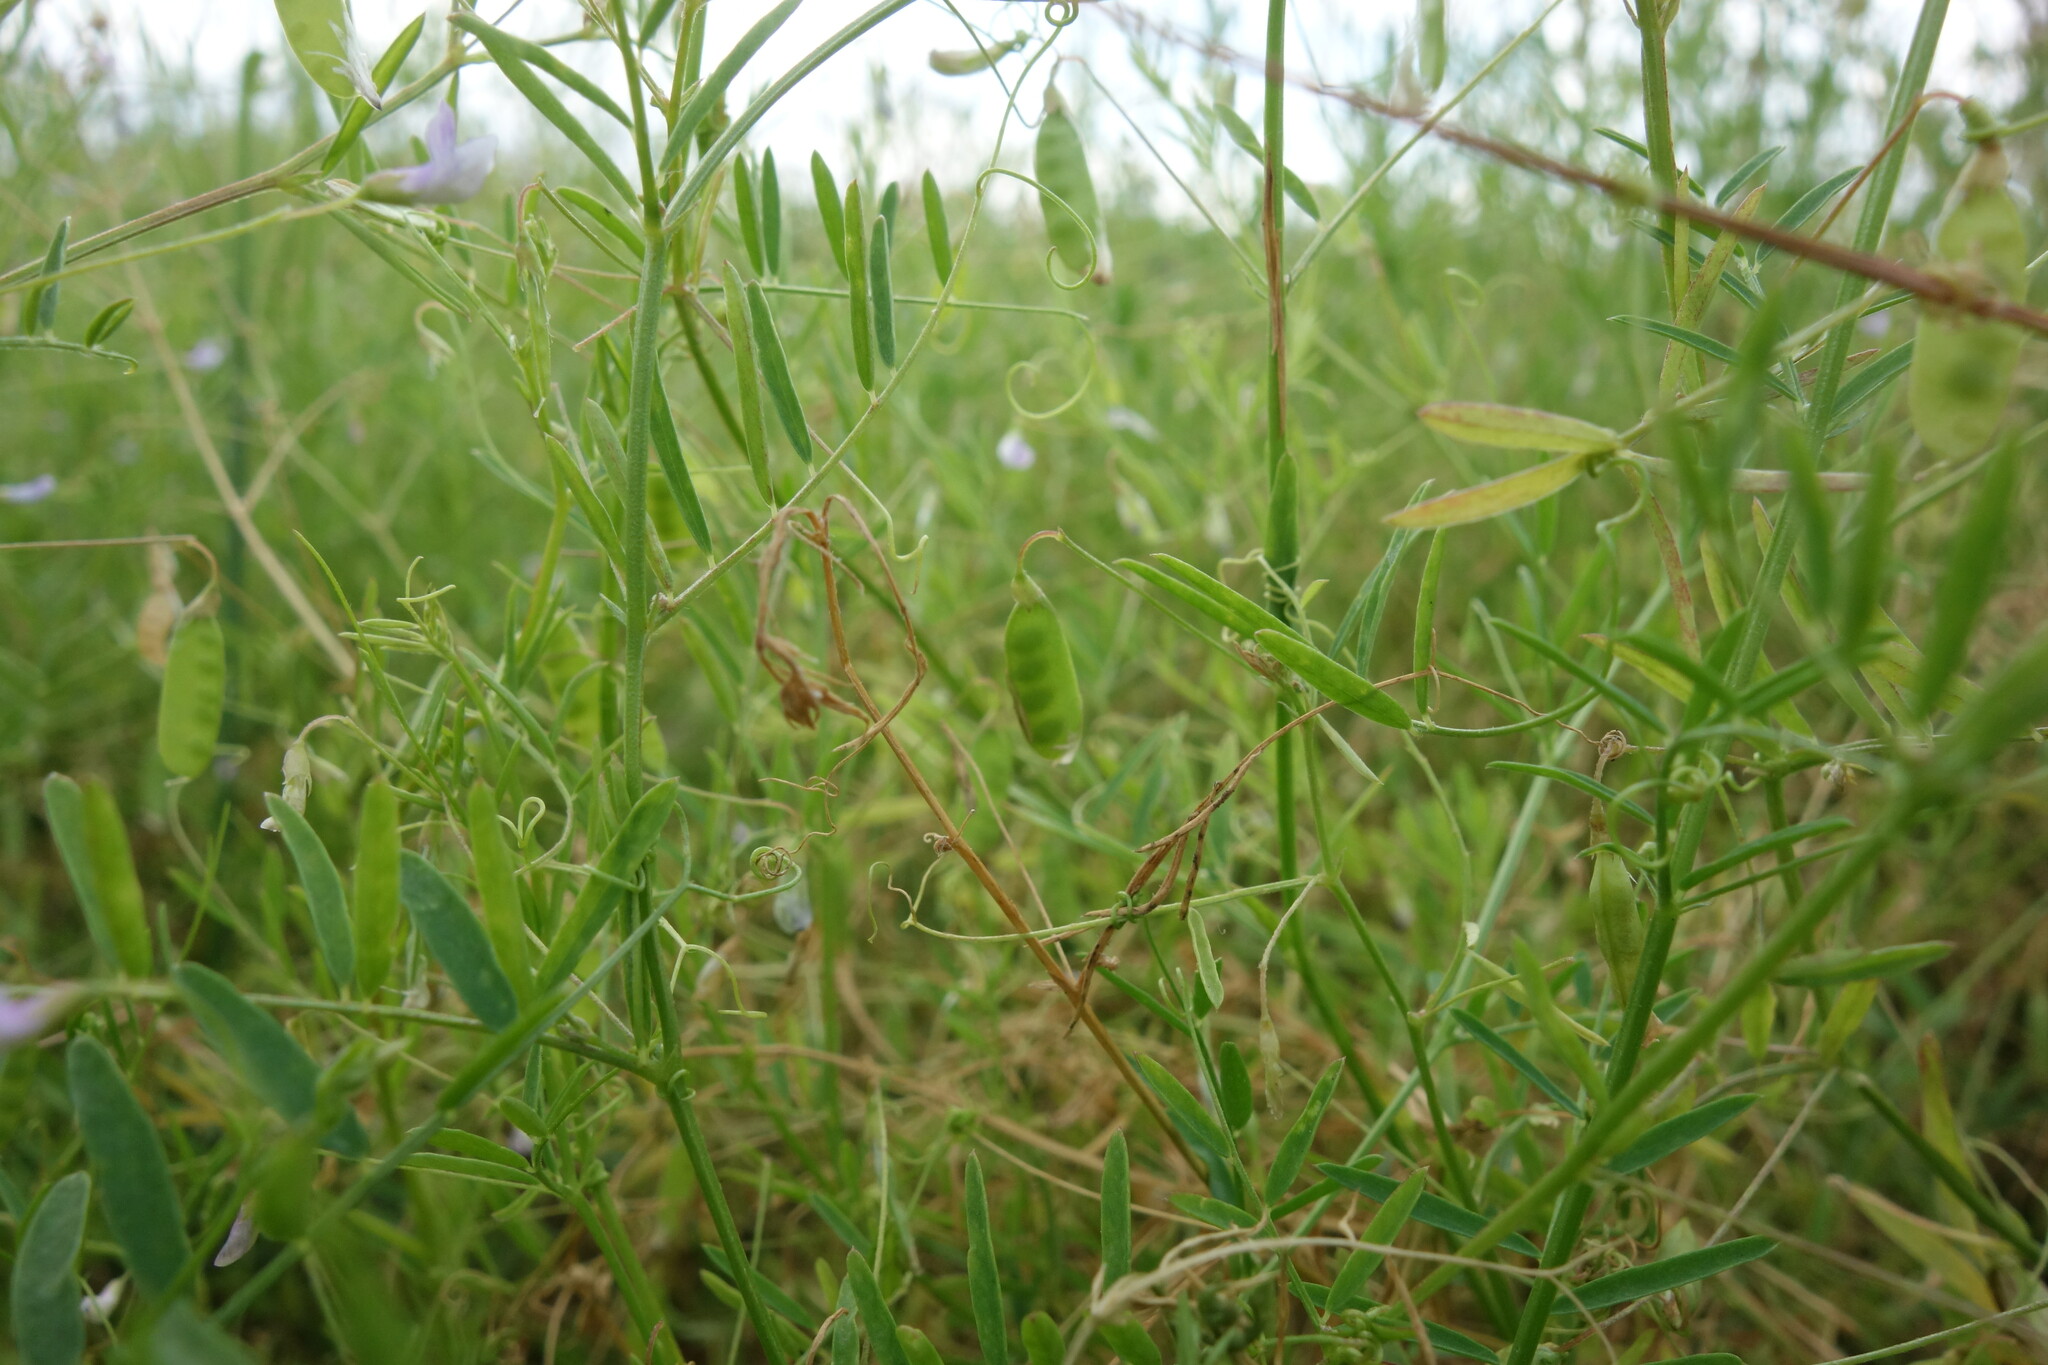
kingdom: Plantae
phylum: Tracheophyta
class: Magnoliopsida
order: Fabales
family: Fabaceae
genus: Vicia
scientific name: Vicia tetrasperma
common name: Smooth tare
